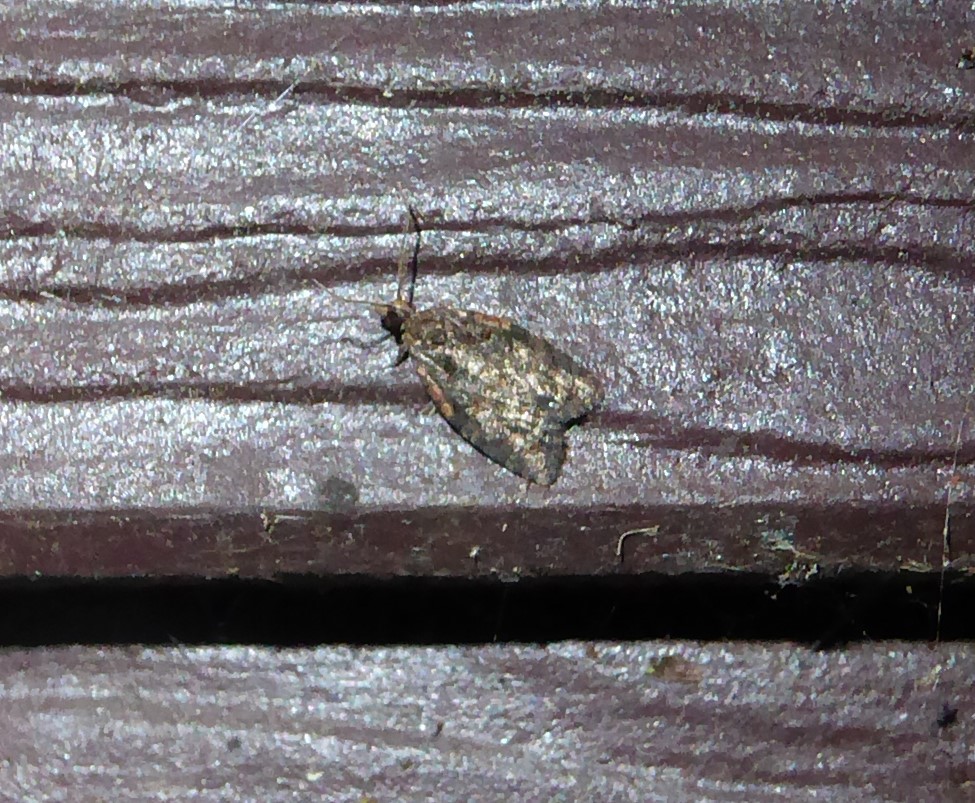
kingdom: Animalia
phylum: Arthropoda
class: Insecta
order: Lepidoptera
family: Tortricidae
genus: Capua
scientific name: Capua intractana
